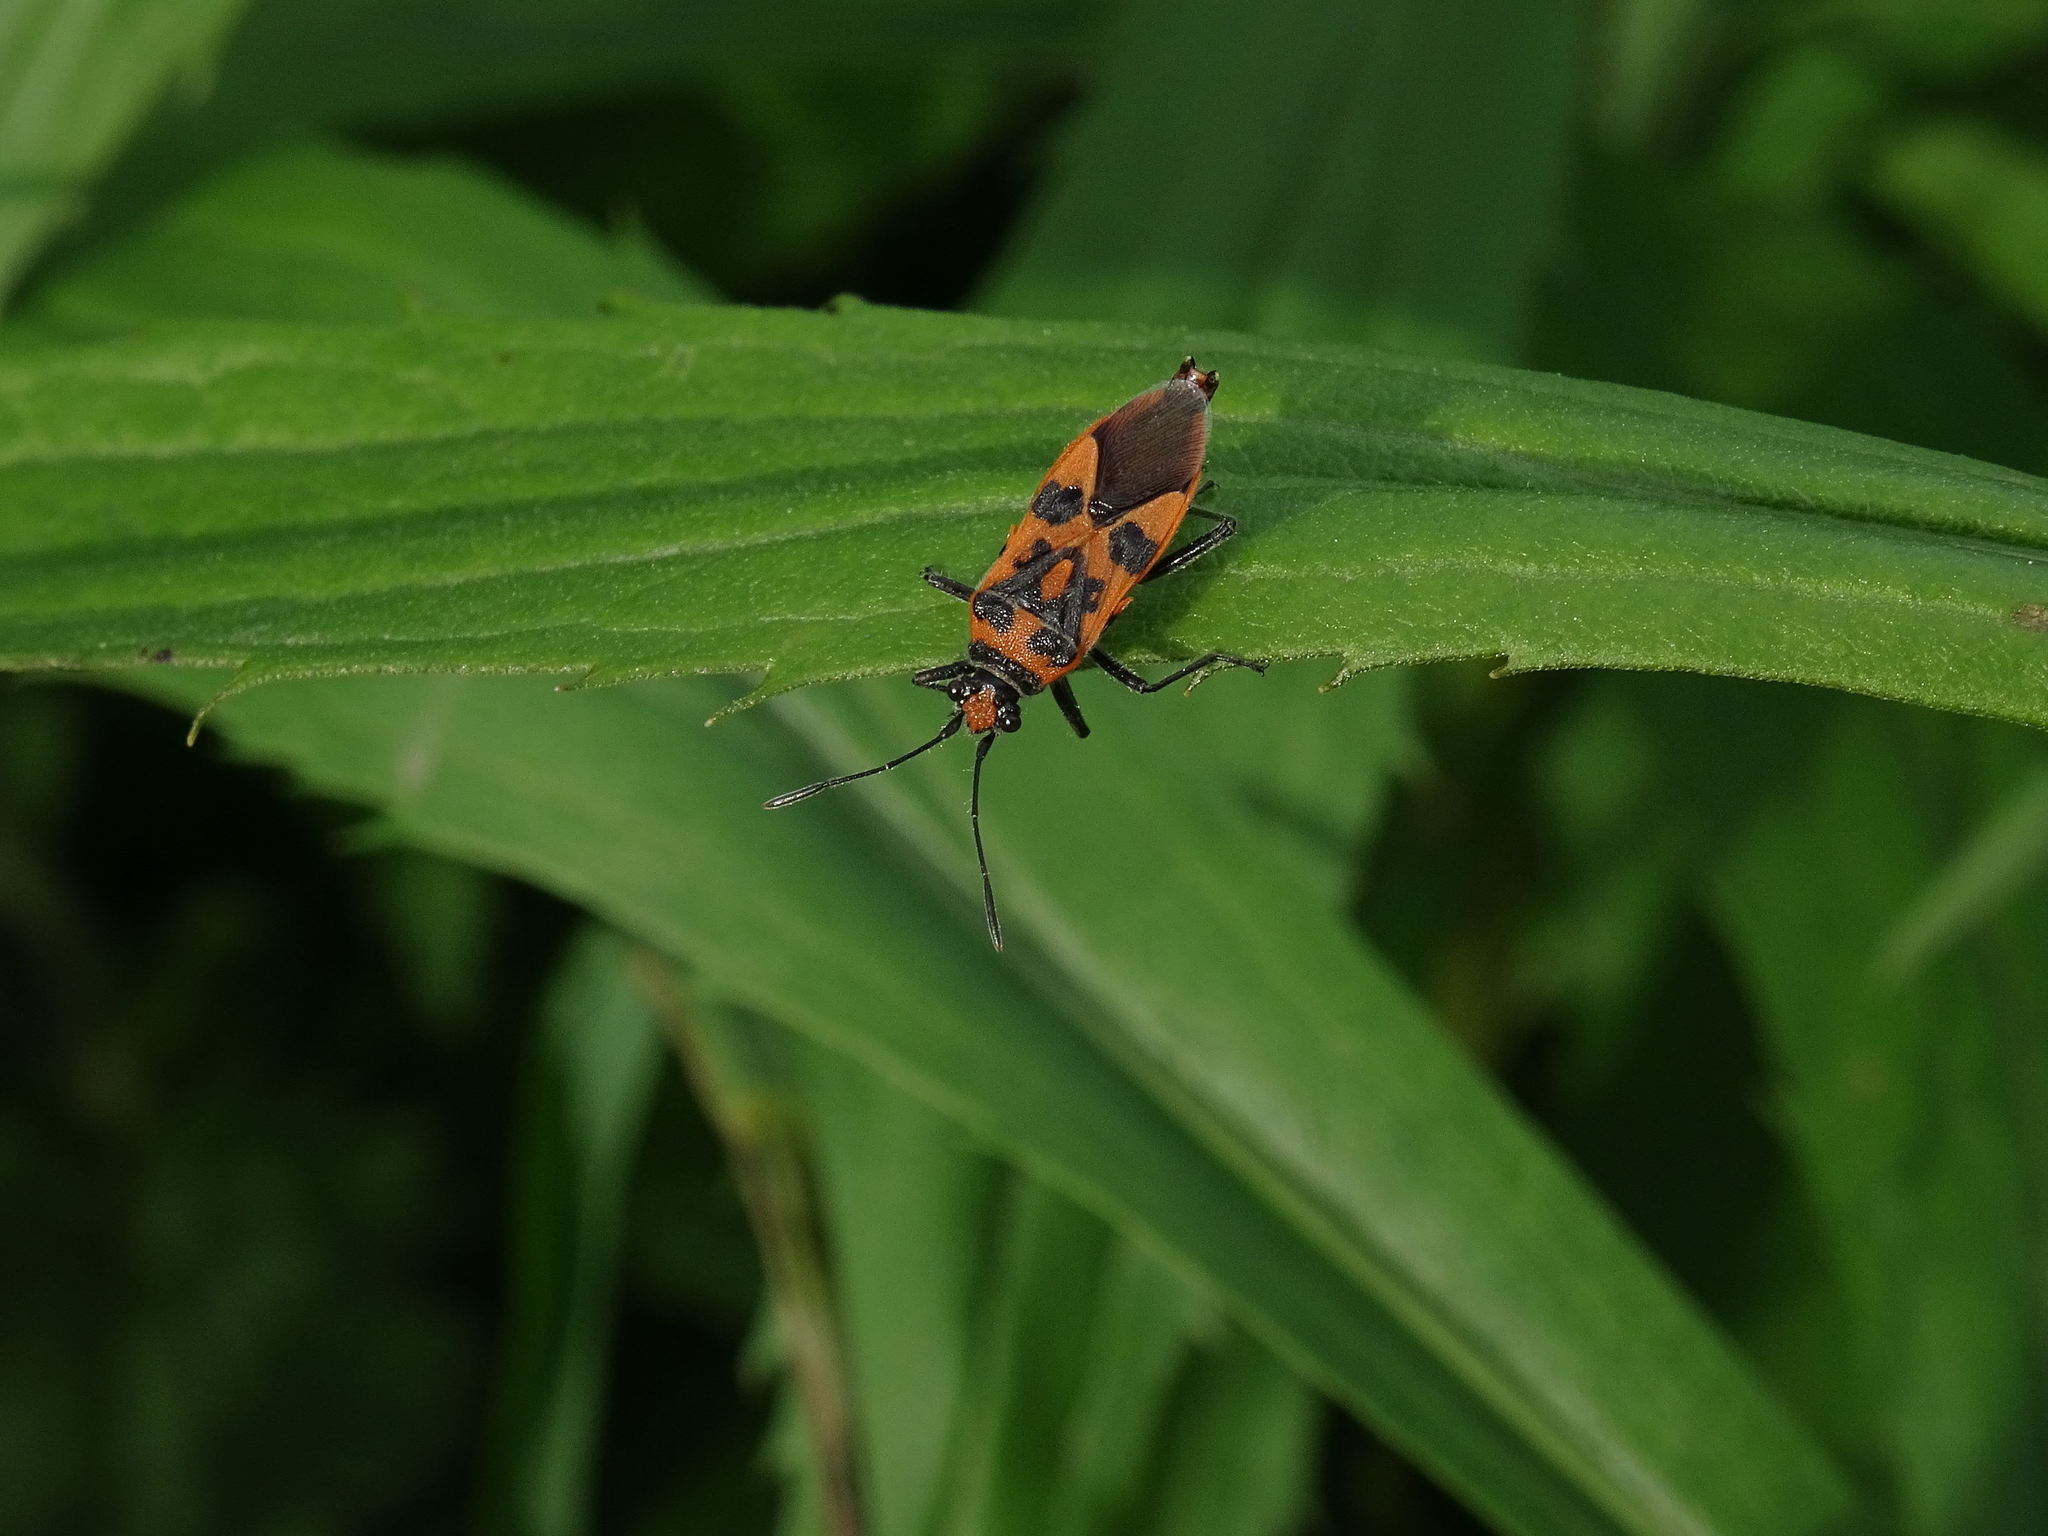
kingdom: Animalia
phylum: Arthropoda
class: Insecta
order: Hemiptera
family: Rhopalidae
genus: Corizus
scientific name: Corizus hyoscyami
